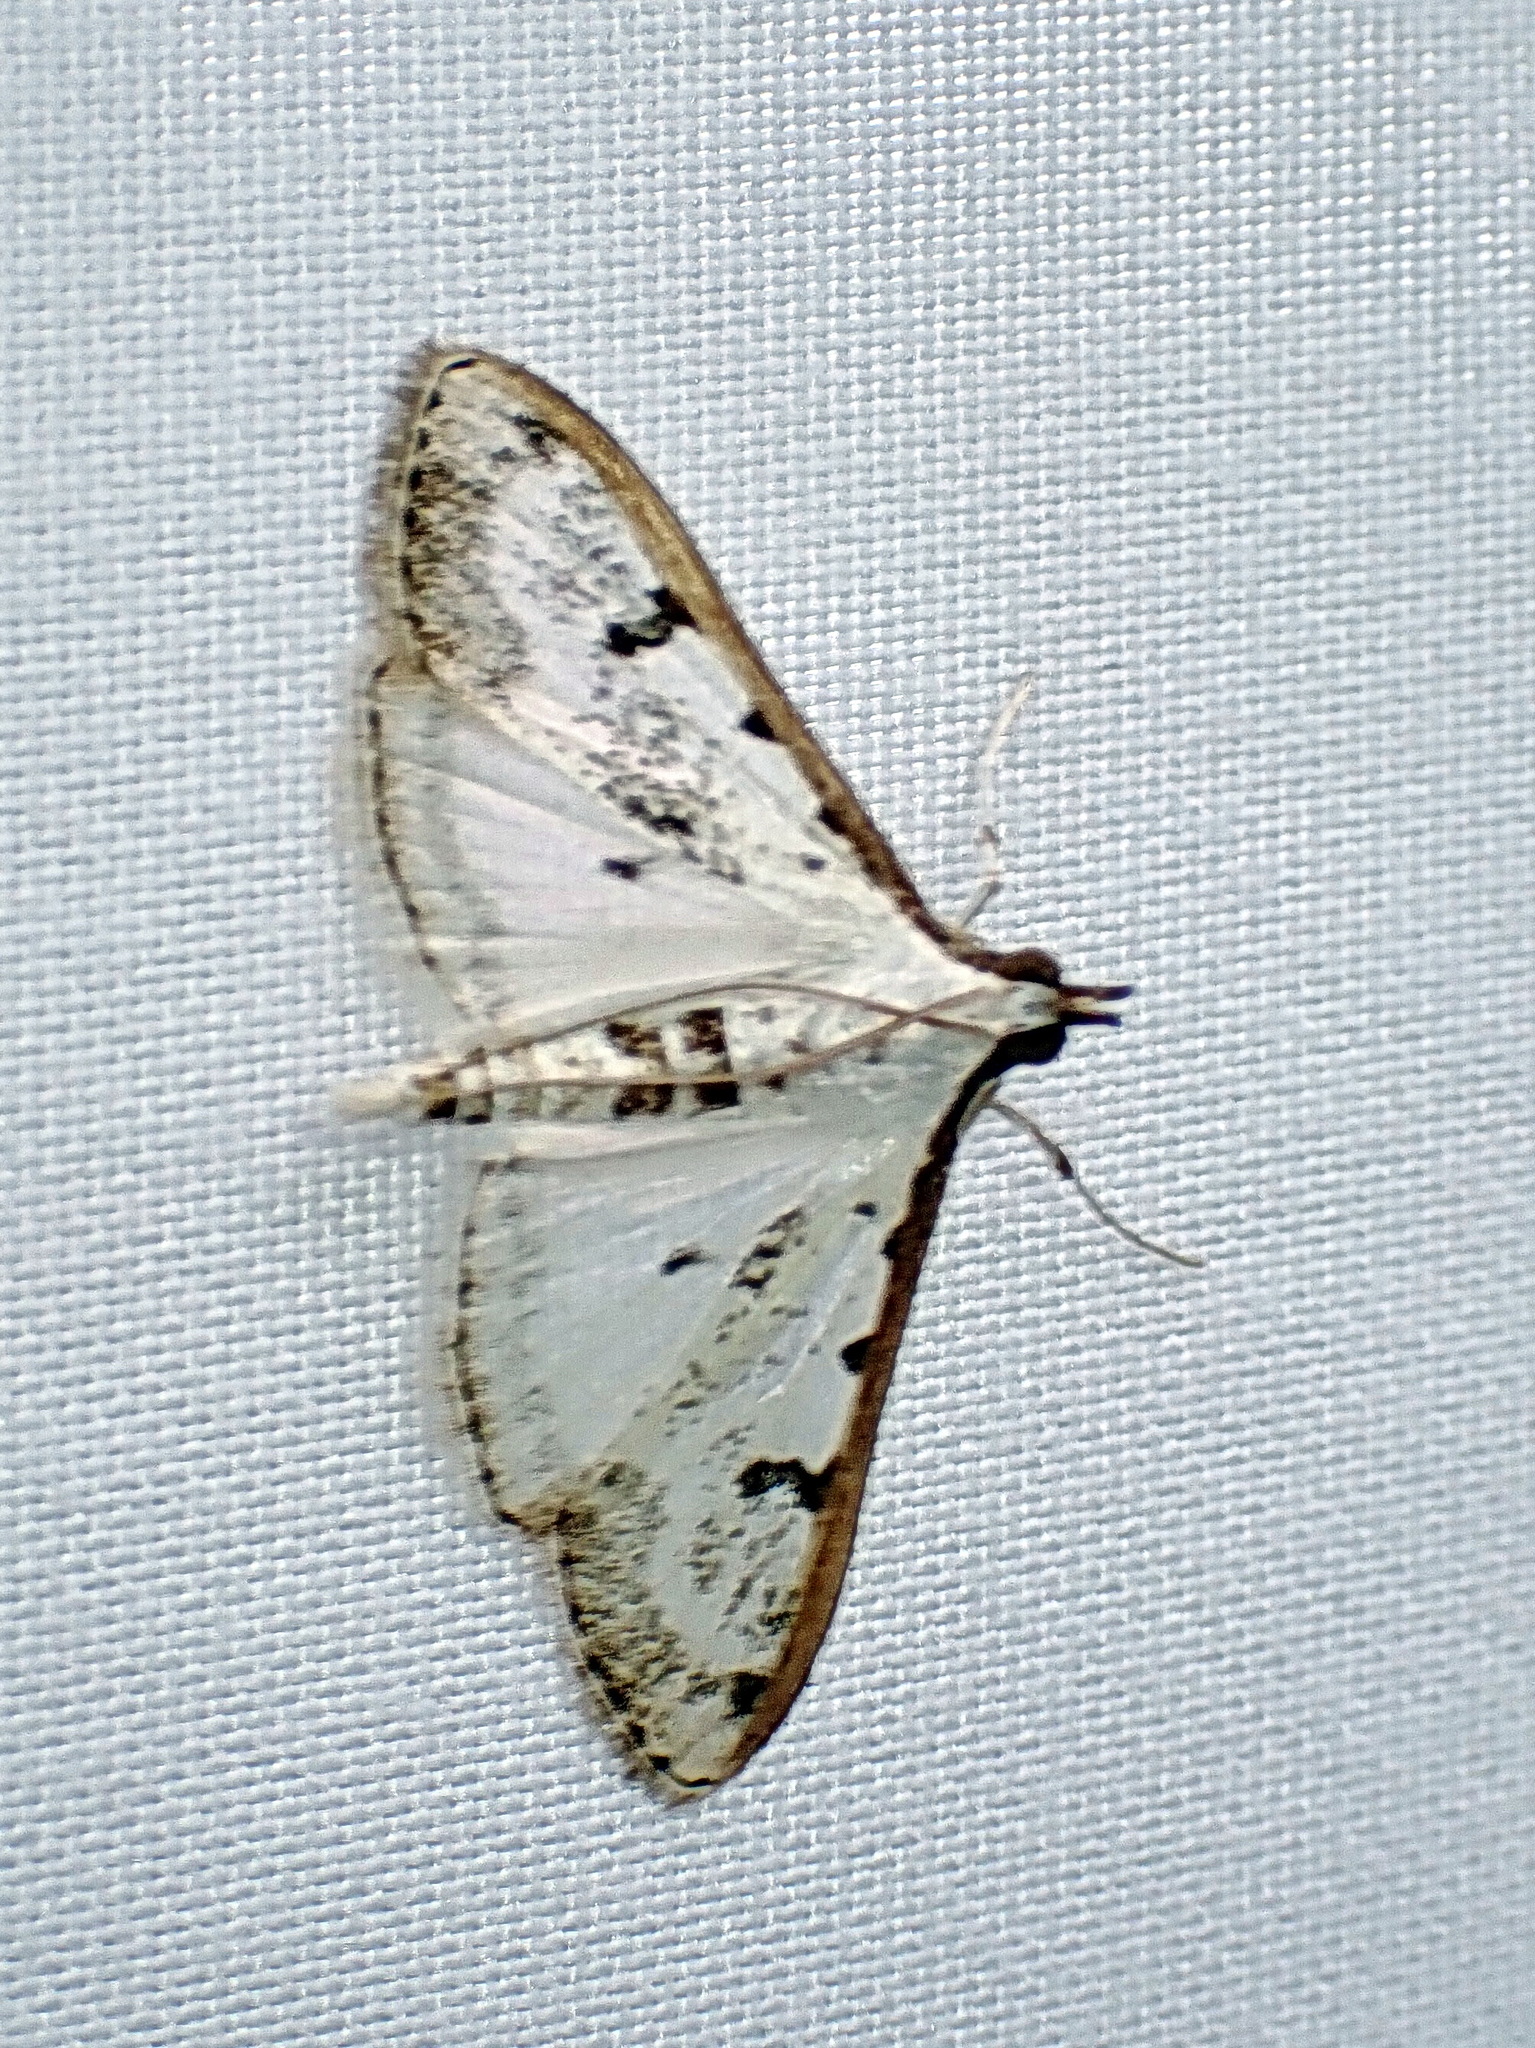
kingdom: Animalia
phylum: Arthropoda
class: Insecta
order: Lepidoptera
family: Crambidae
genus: Palpita
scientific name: Palpita gracilalis
